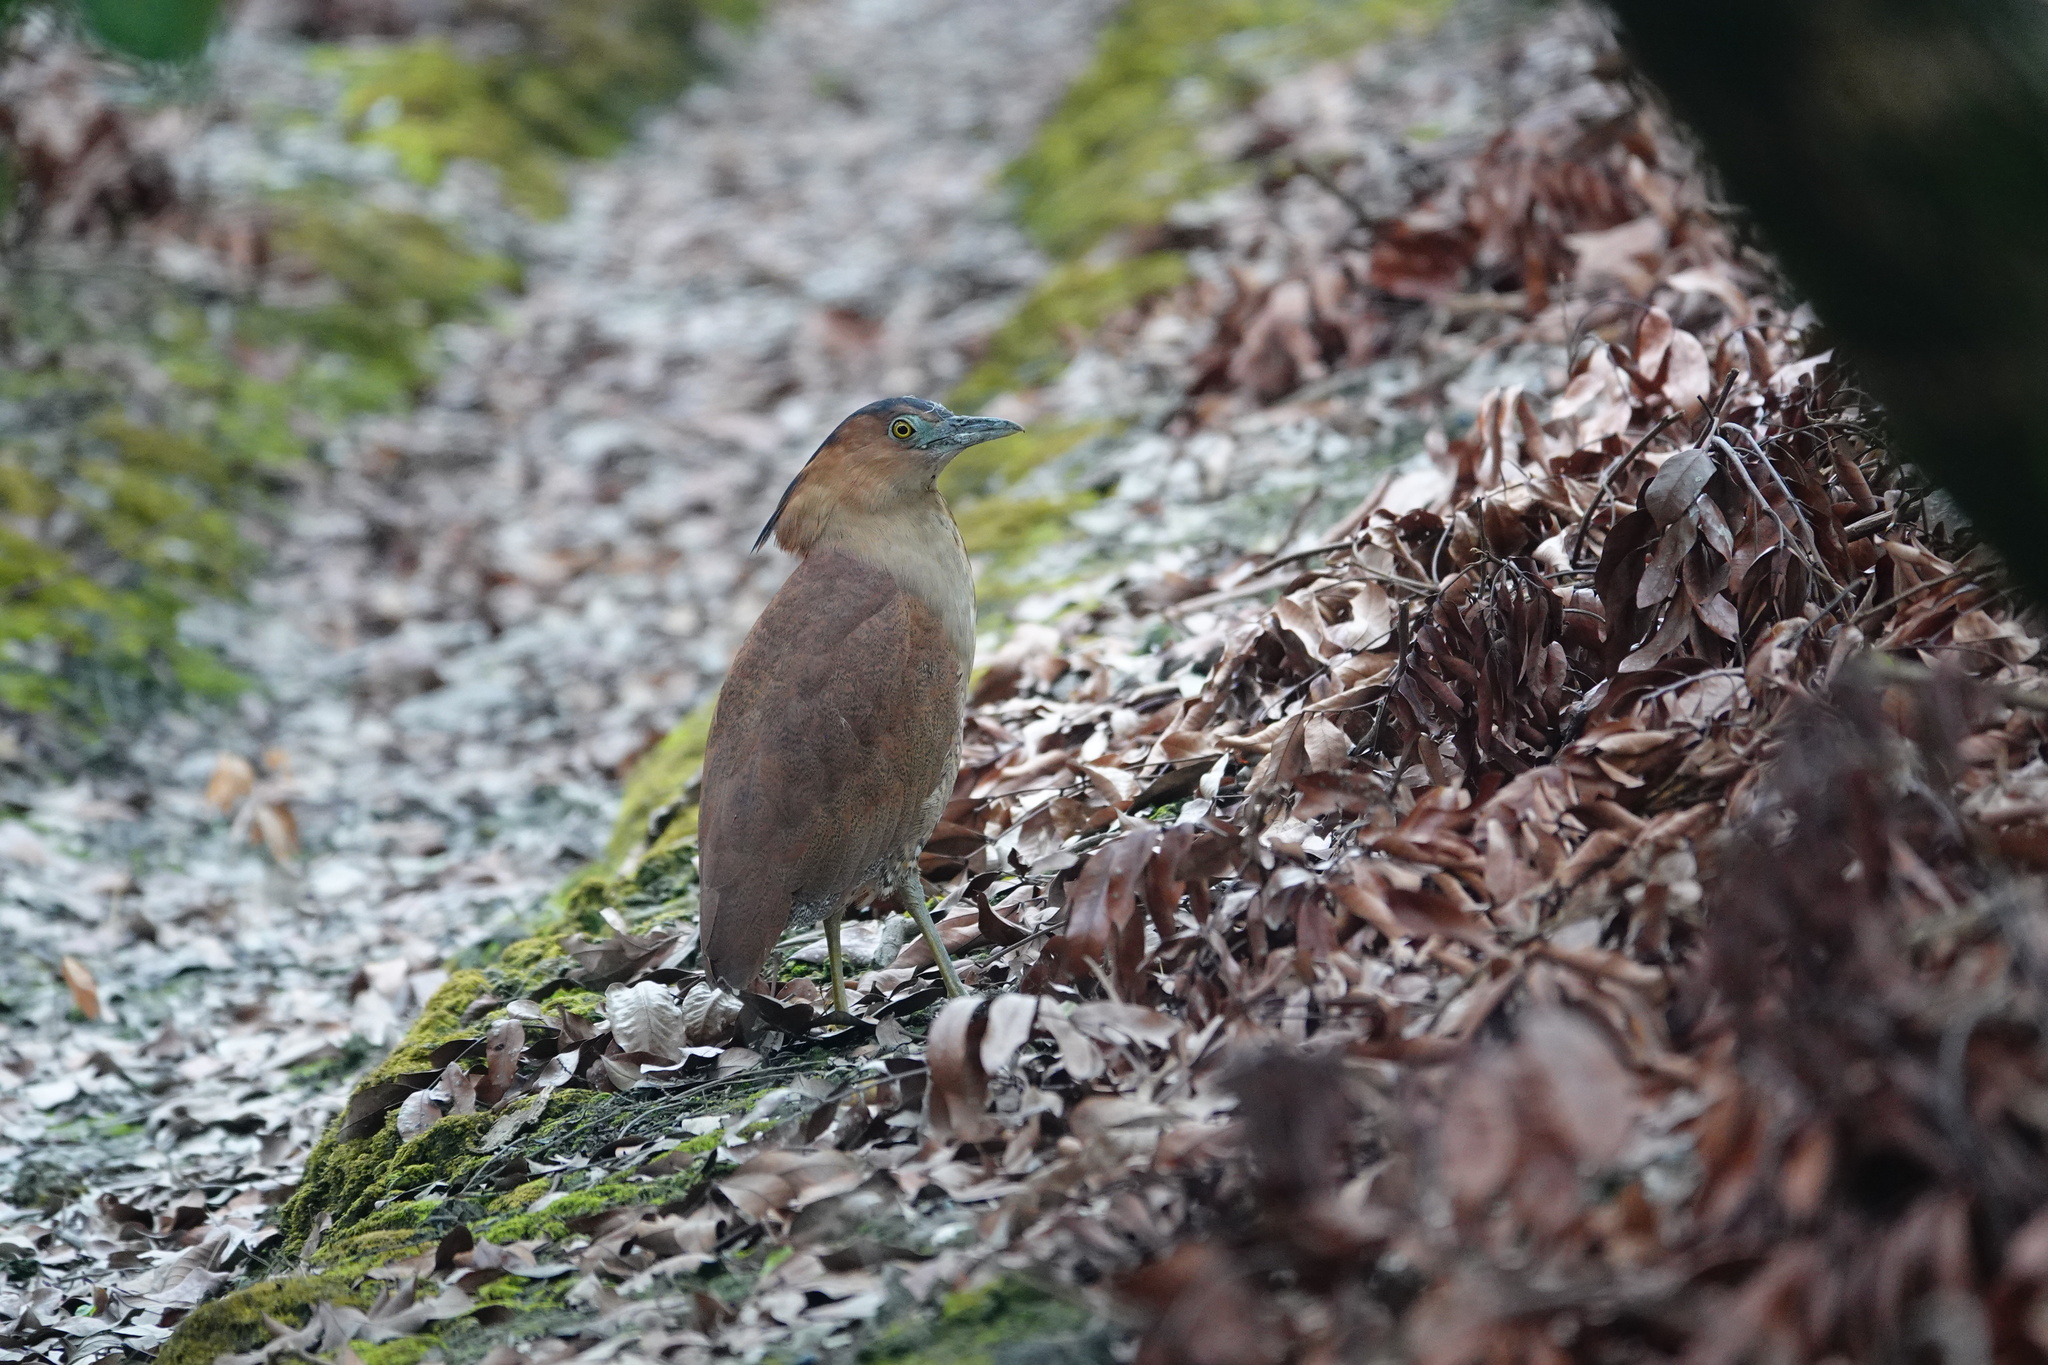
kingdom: Animalia
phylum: Chordata
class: Aves
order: Pelecaniformes
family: Ardeidae
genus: Gorsachius
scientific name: Gorsachius melanolophus
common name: Malayan night heron
